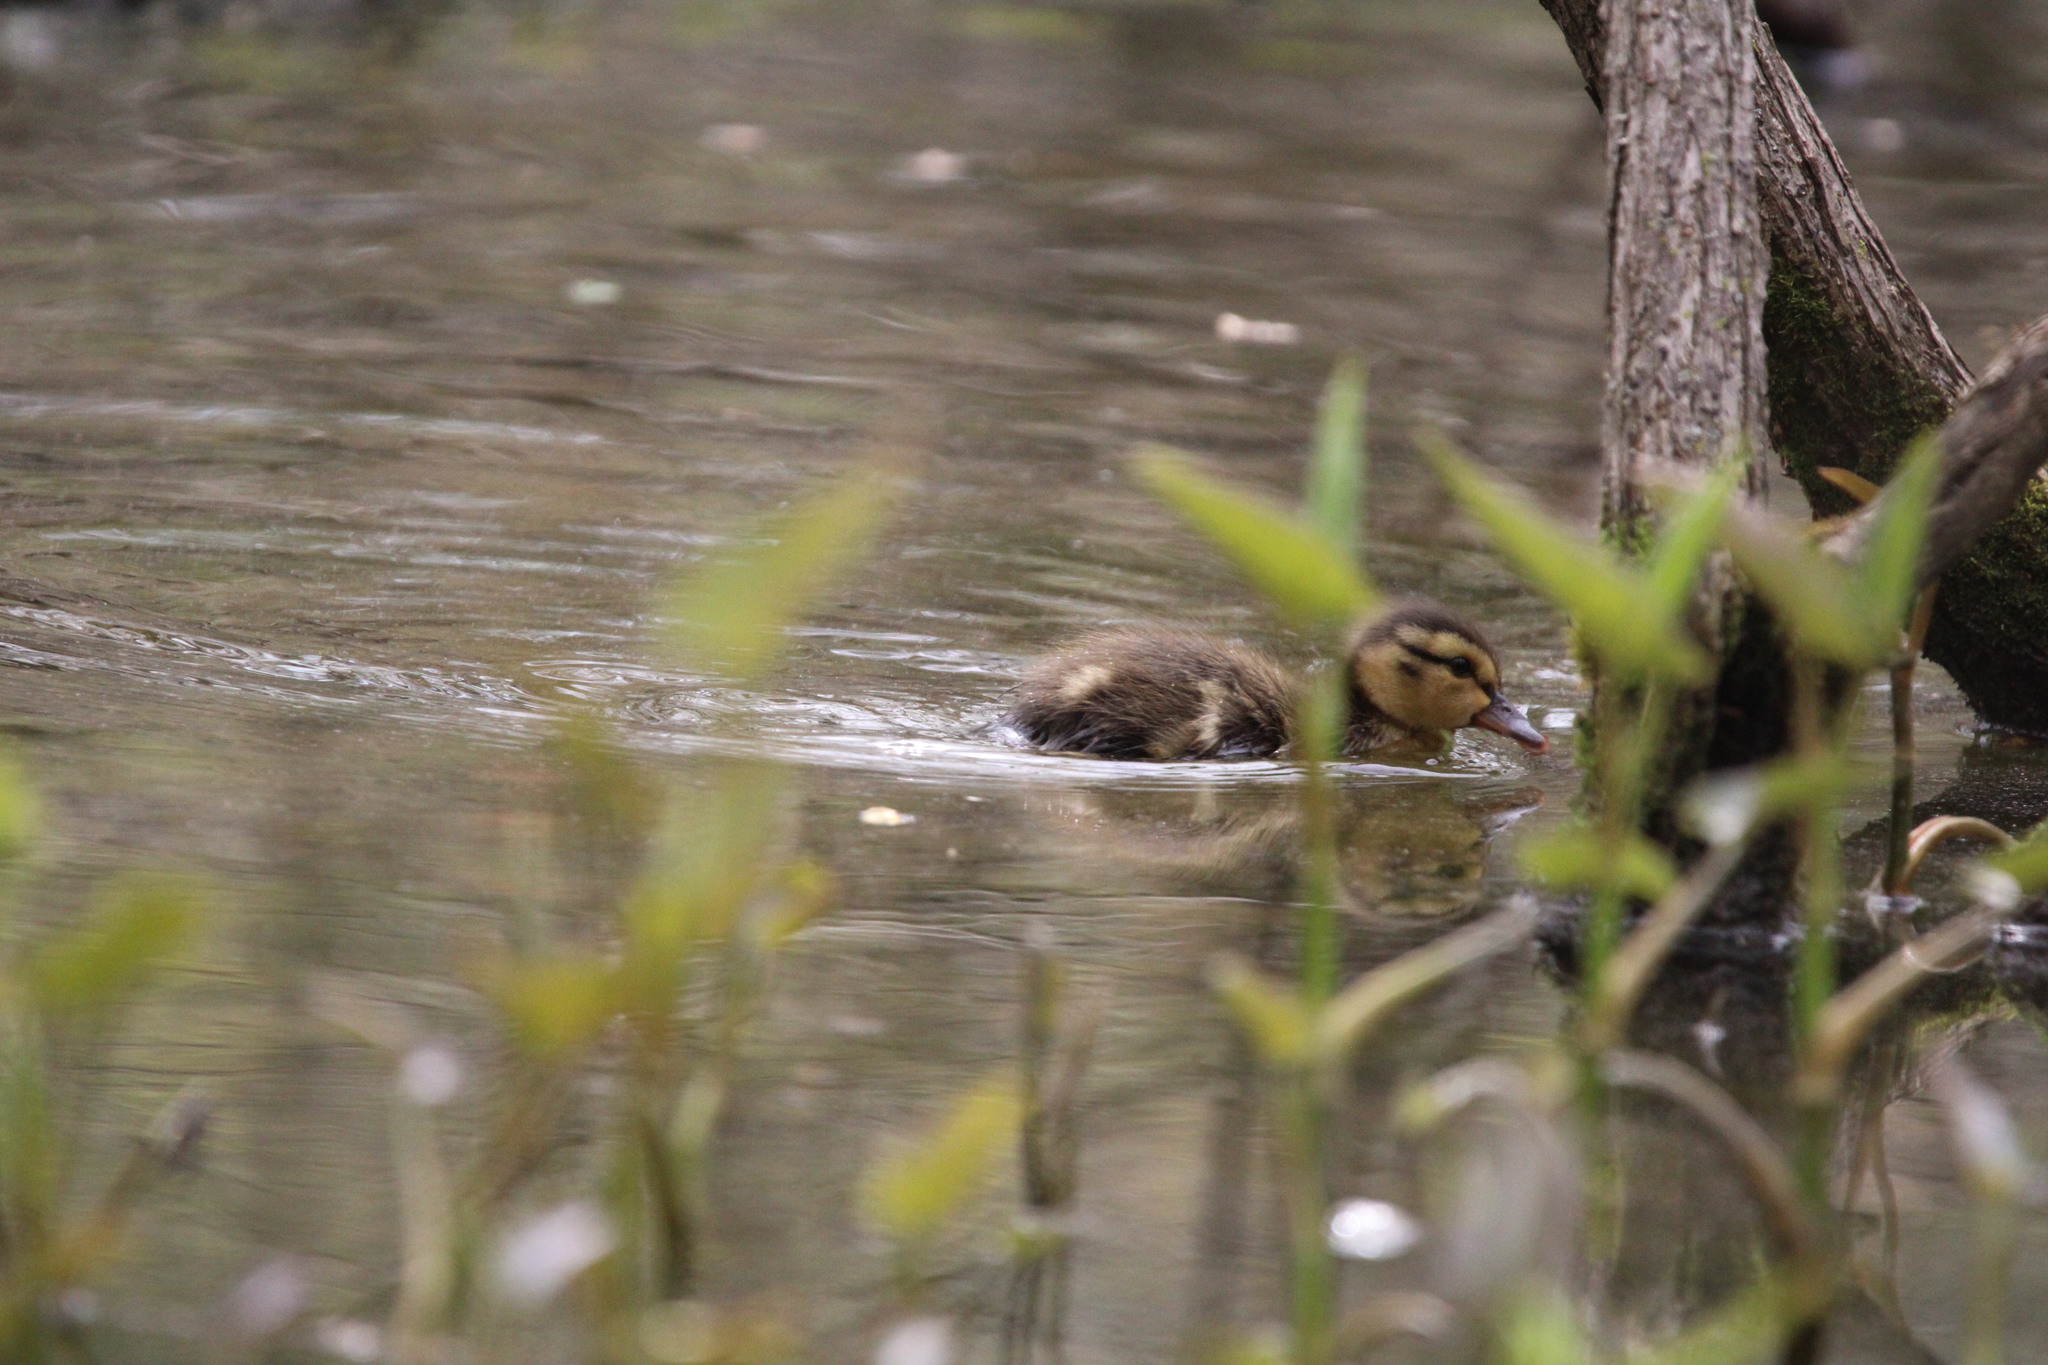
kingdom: Animalia
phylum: Chordata
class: Aves
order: Anseriformes
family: Anatidae
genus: Anas
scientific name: Anas platyrhynchos
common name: Mallard
